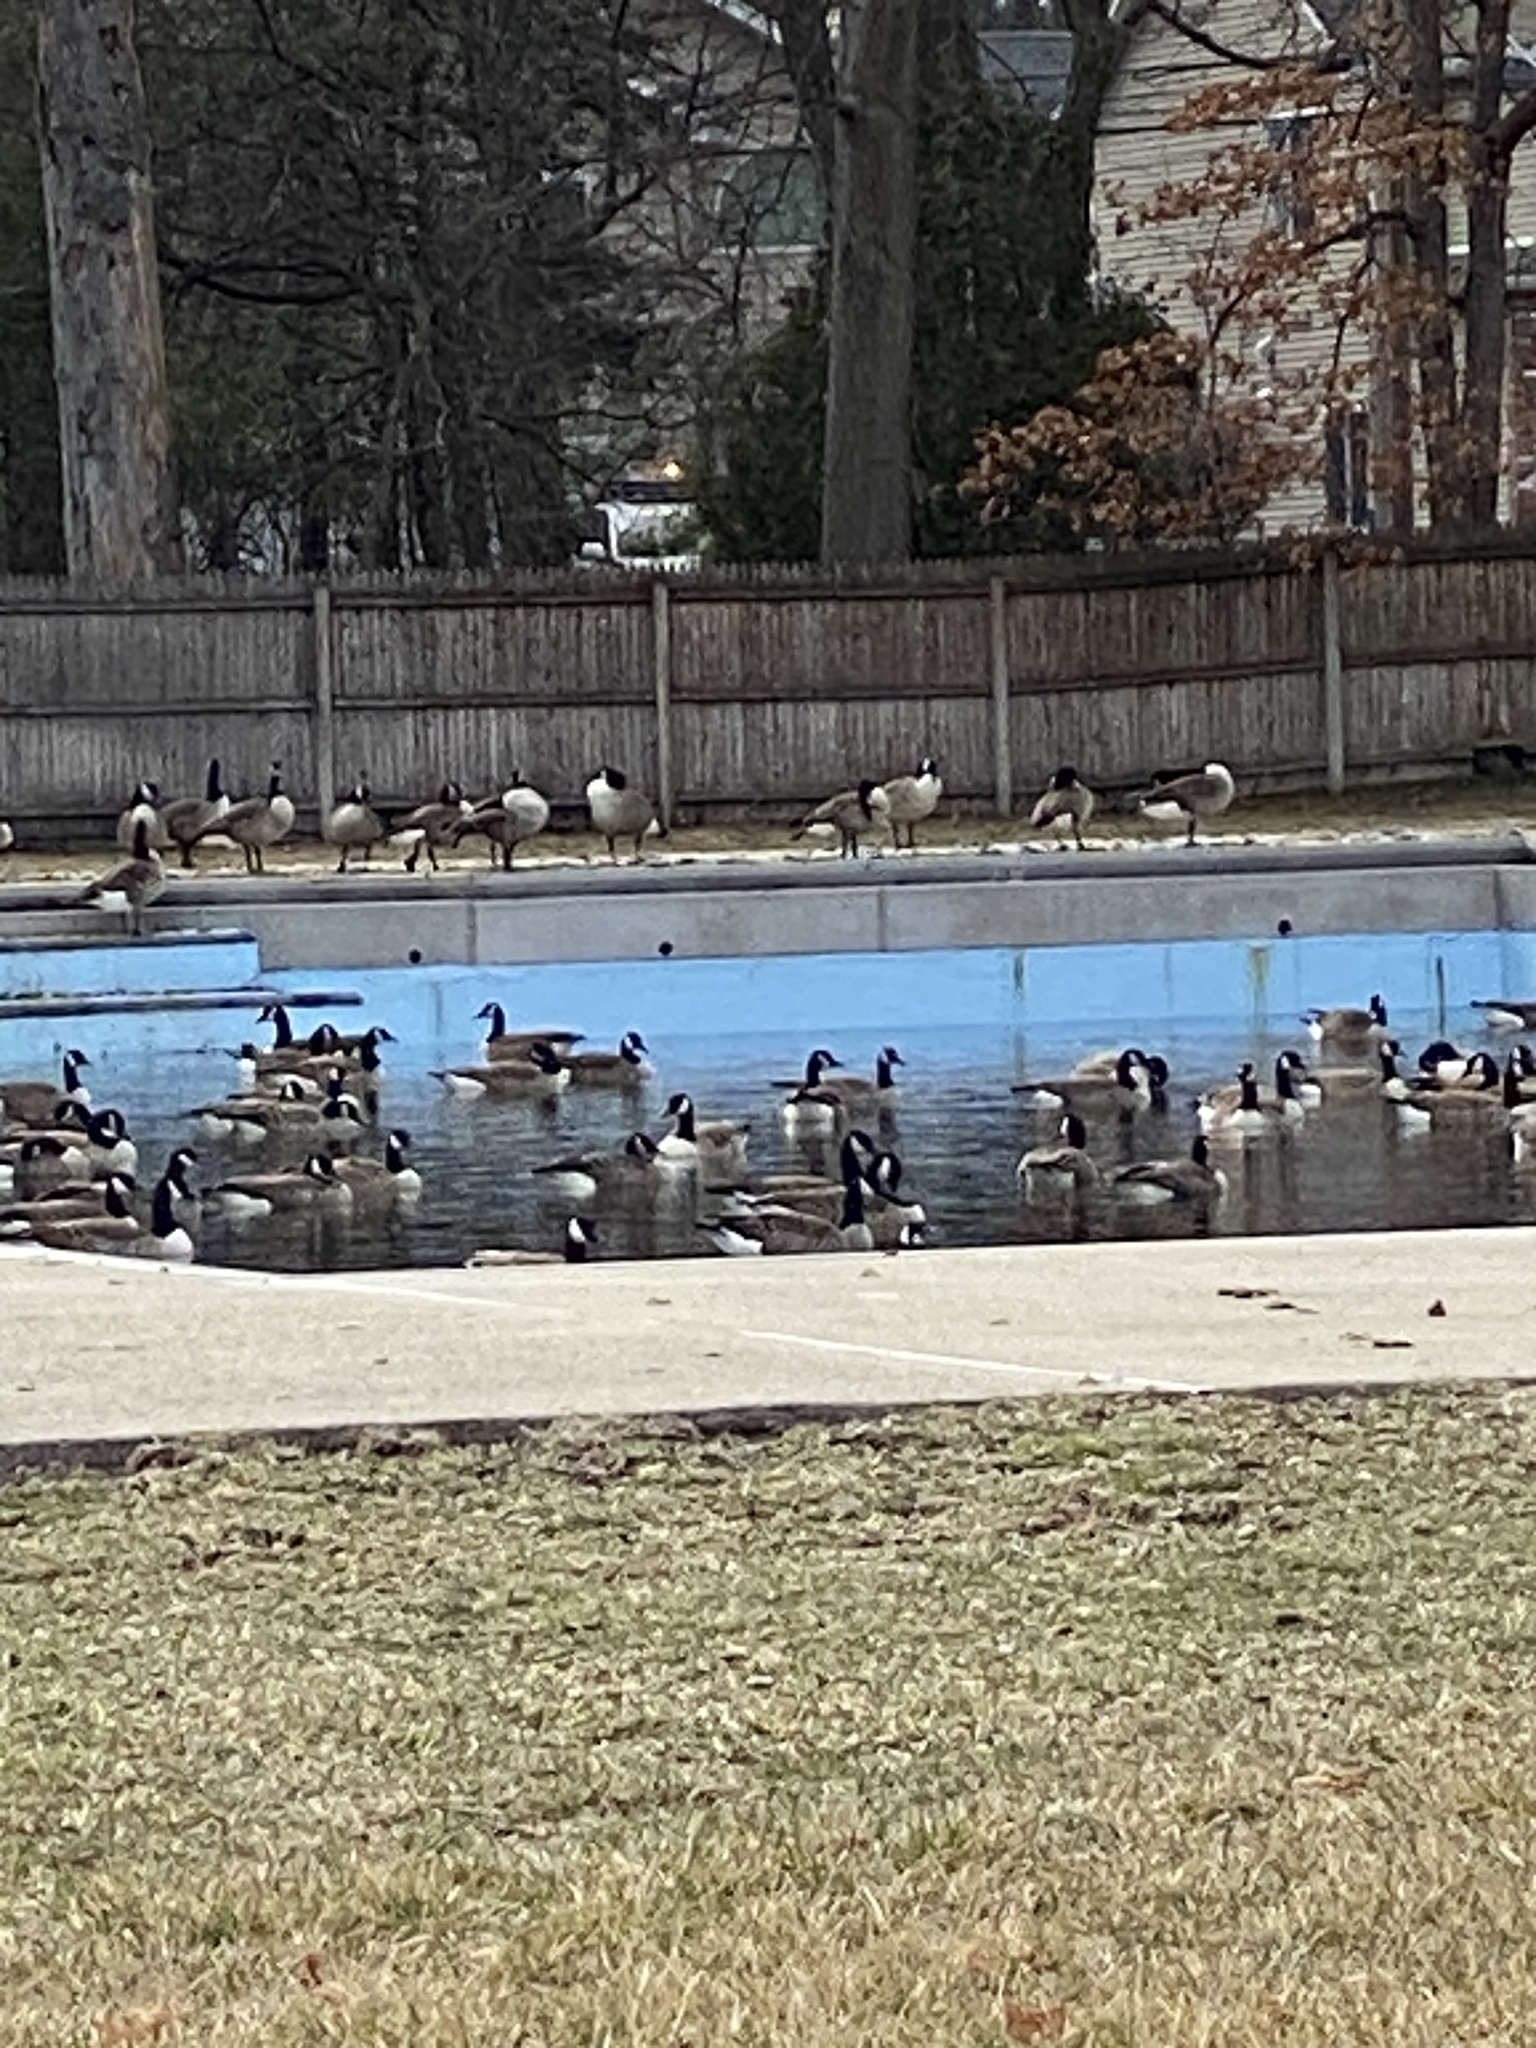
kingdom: Animalia
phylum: Chordata
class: Aves
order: Anseriformes
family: Anatidae
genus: Branta
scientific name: Branta canadensis
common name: Canada goose
